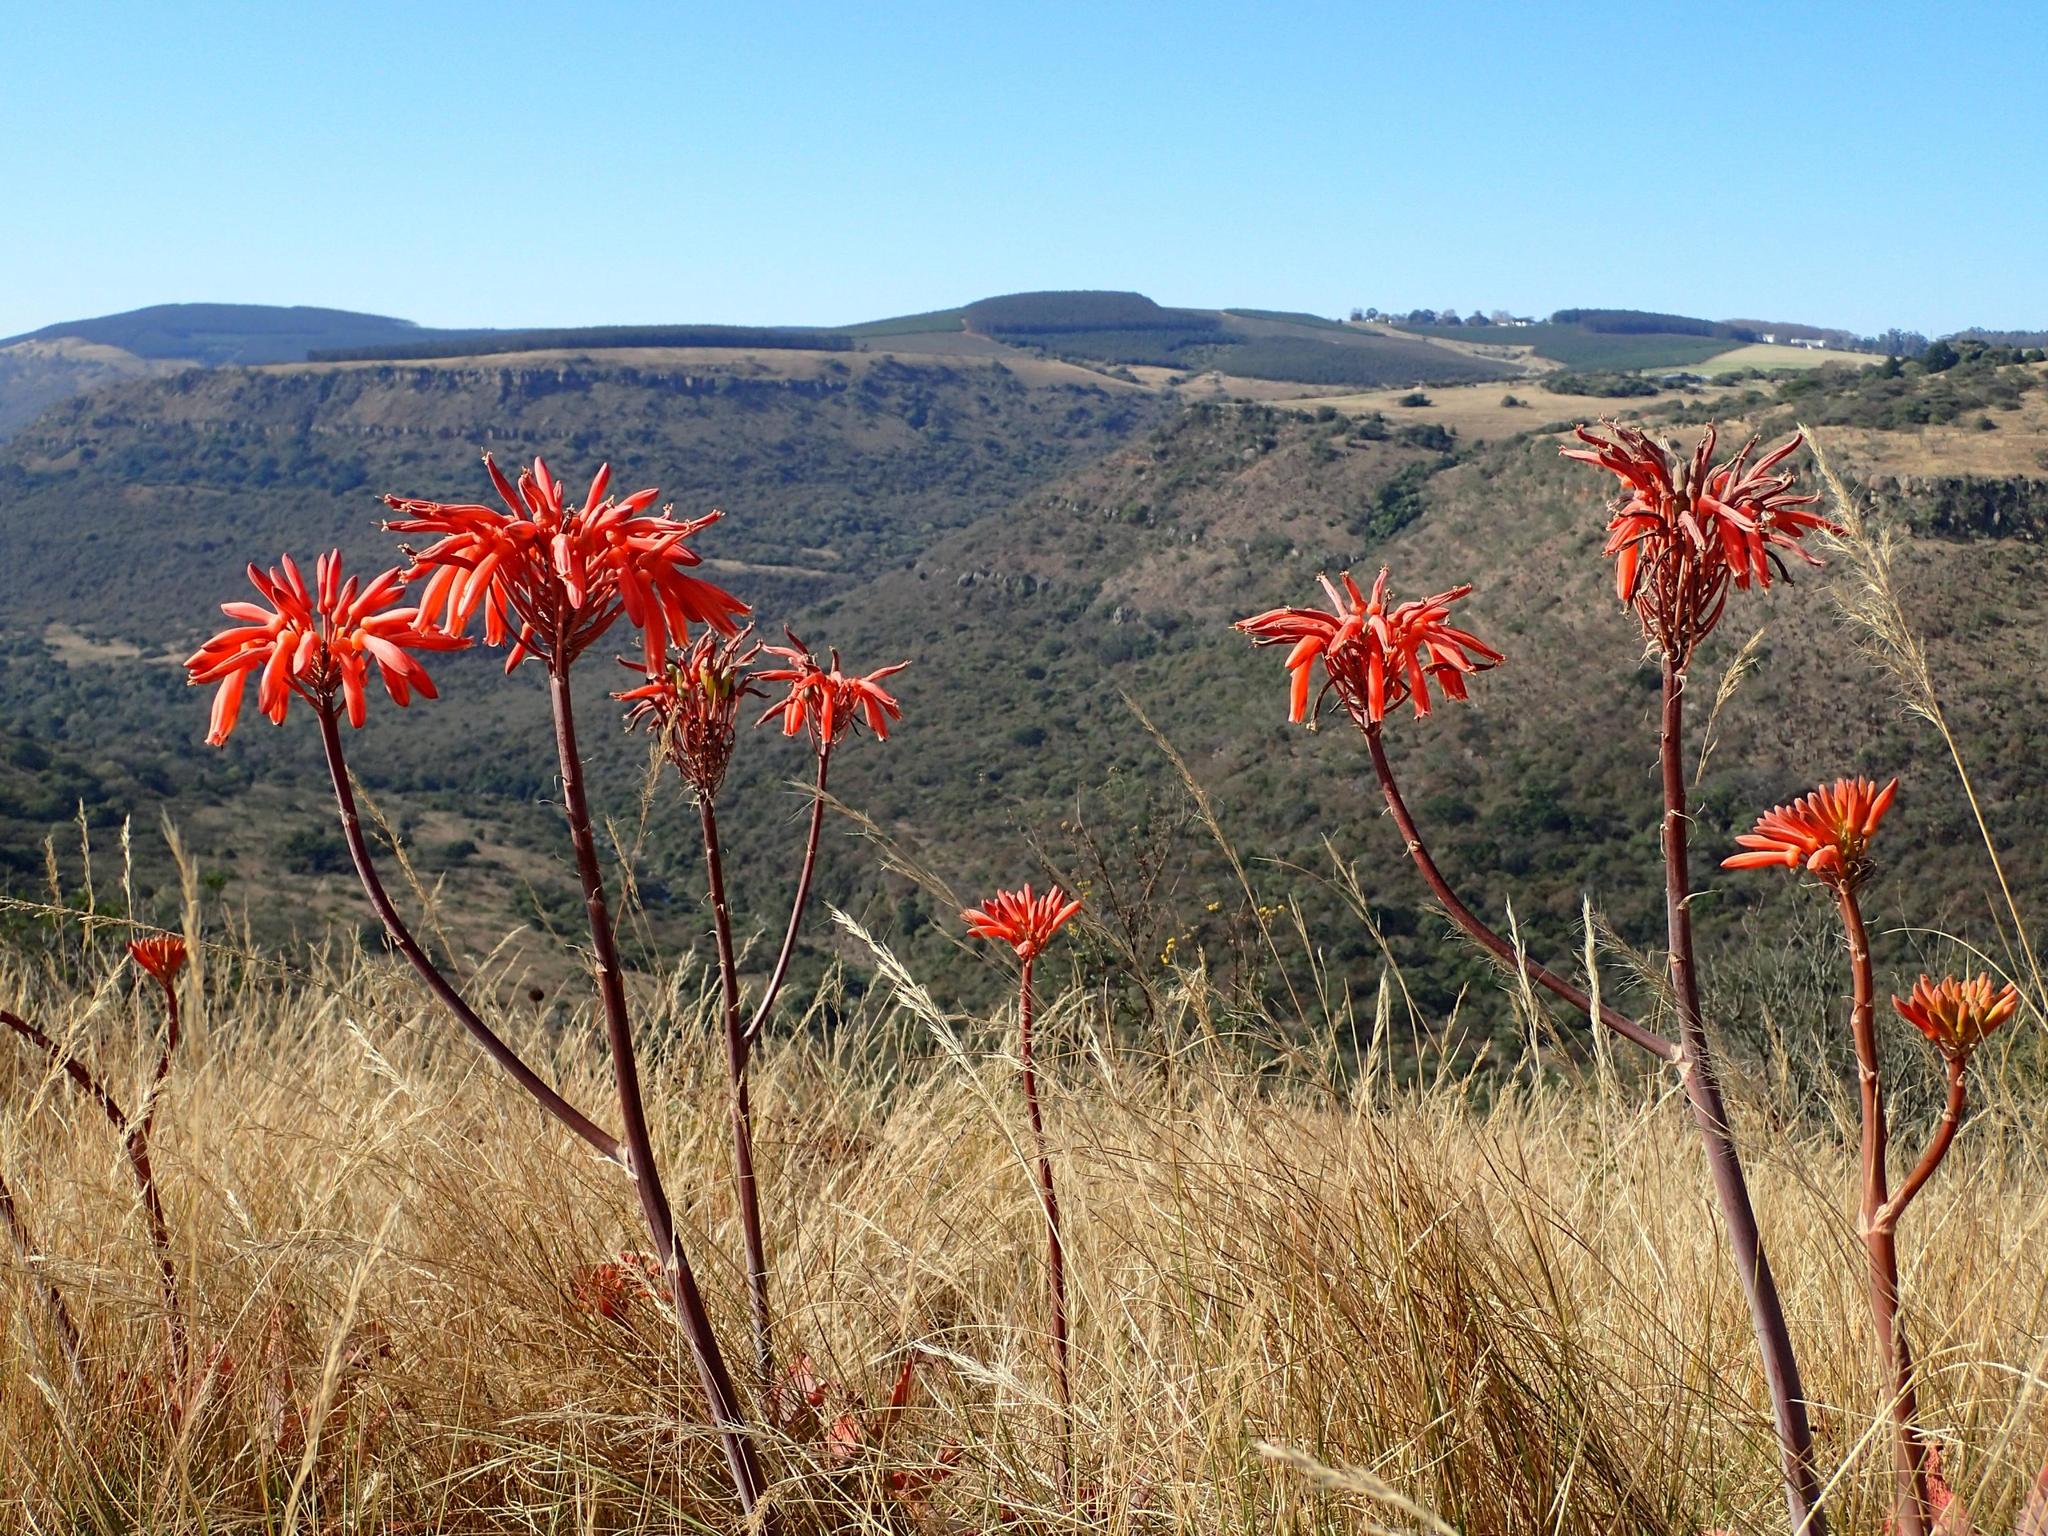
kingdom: Plantae
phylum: Tracheophyta
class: Liliopsida
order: Asparagales
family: Asphodelaceae
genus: Aloe
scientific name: Aloe maculata
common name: Broadleaf aloe
